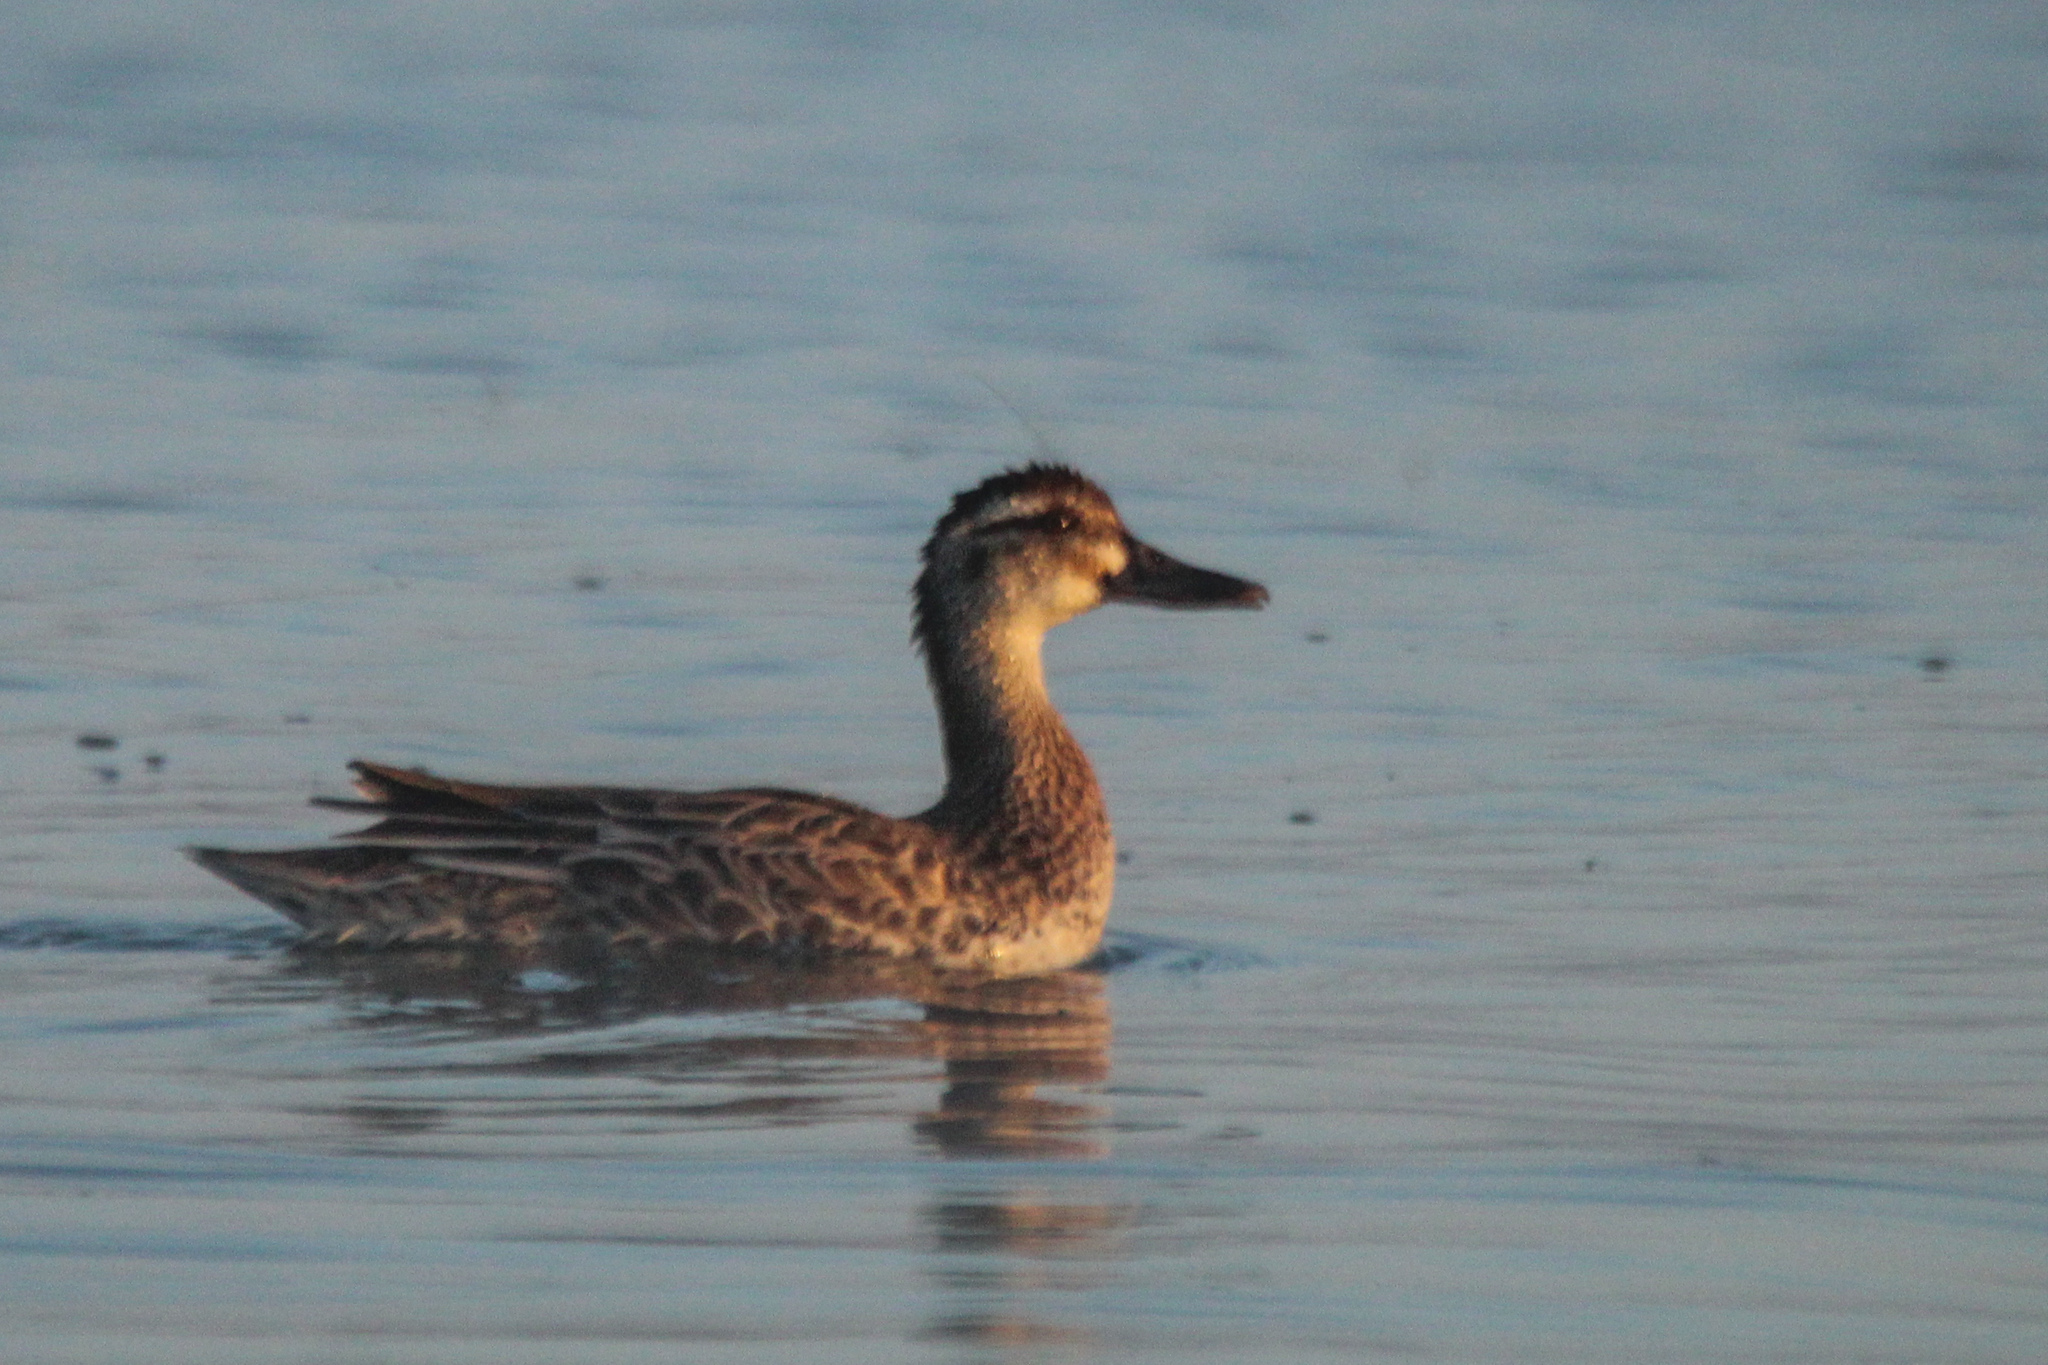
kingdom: Animalia
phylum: Chordata
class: Aves
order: Anseriformes
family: Anatidae
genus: Spatula
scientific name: Spatula querquedula
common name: Garganey
